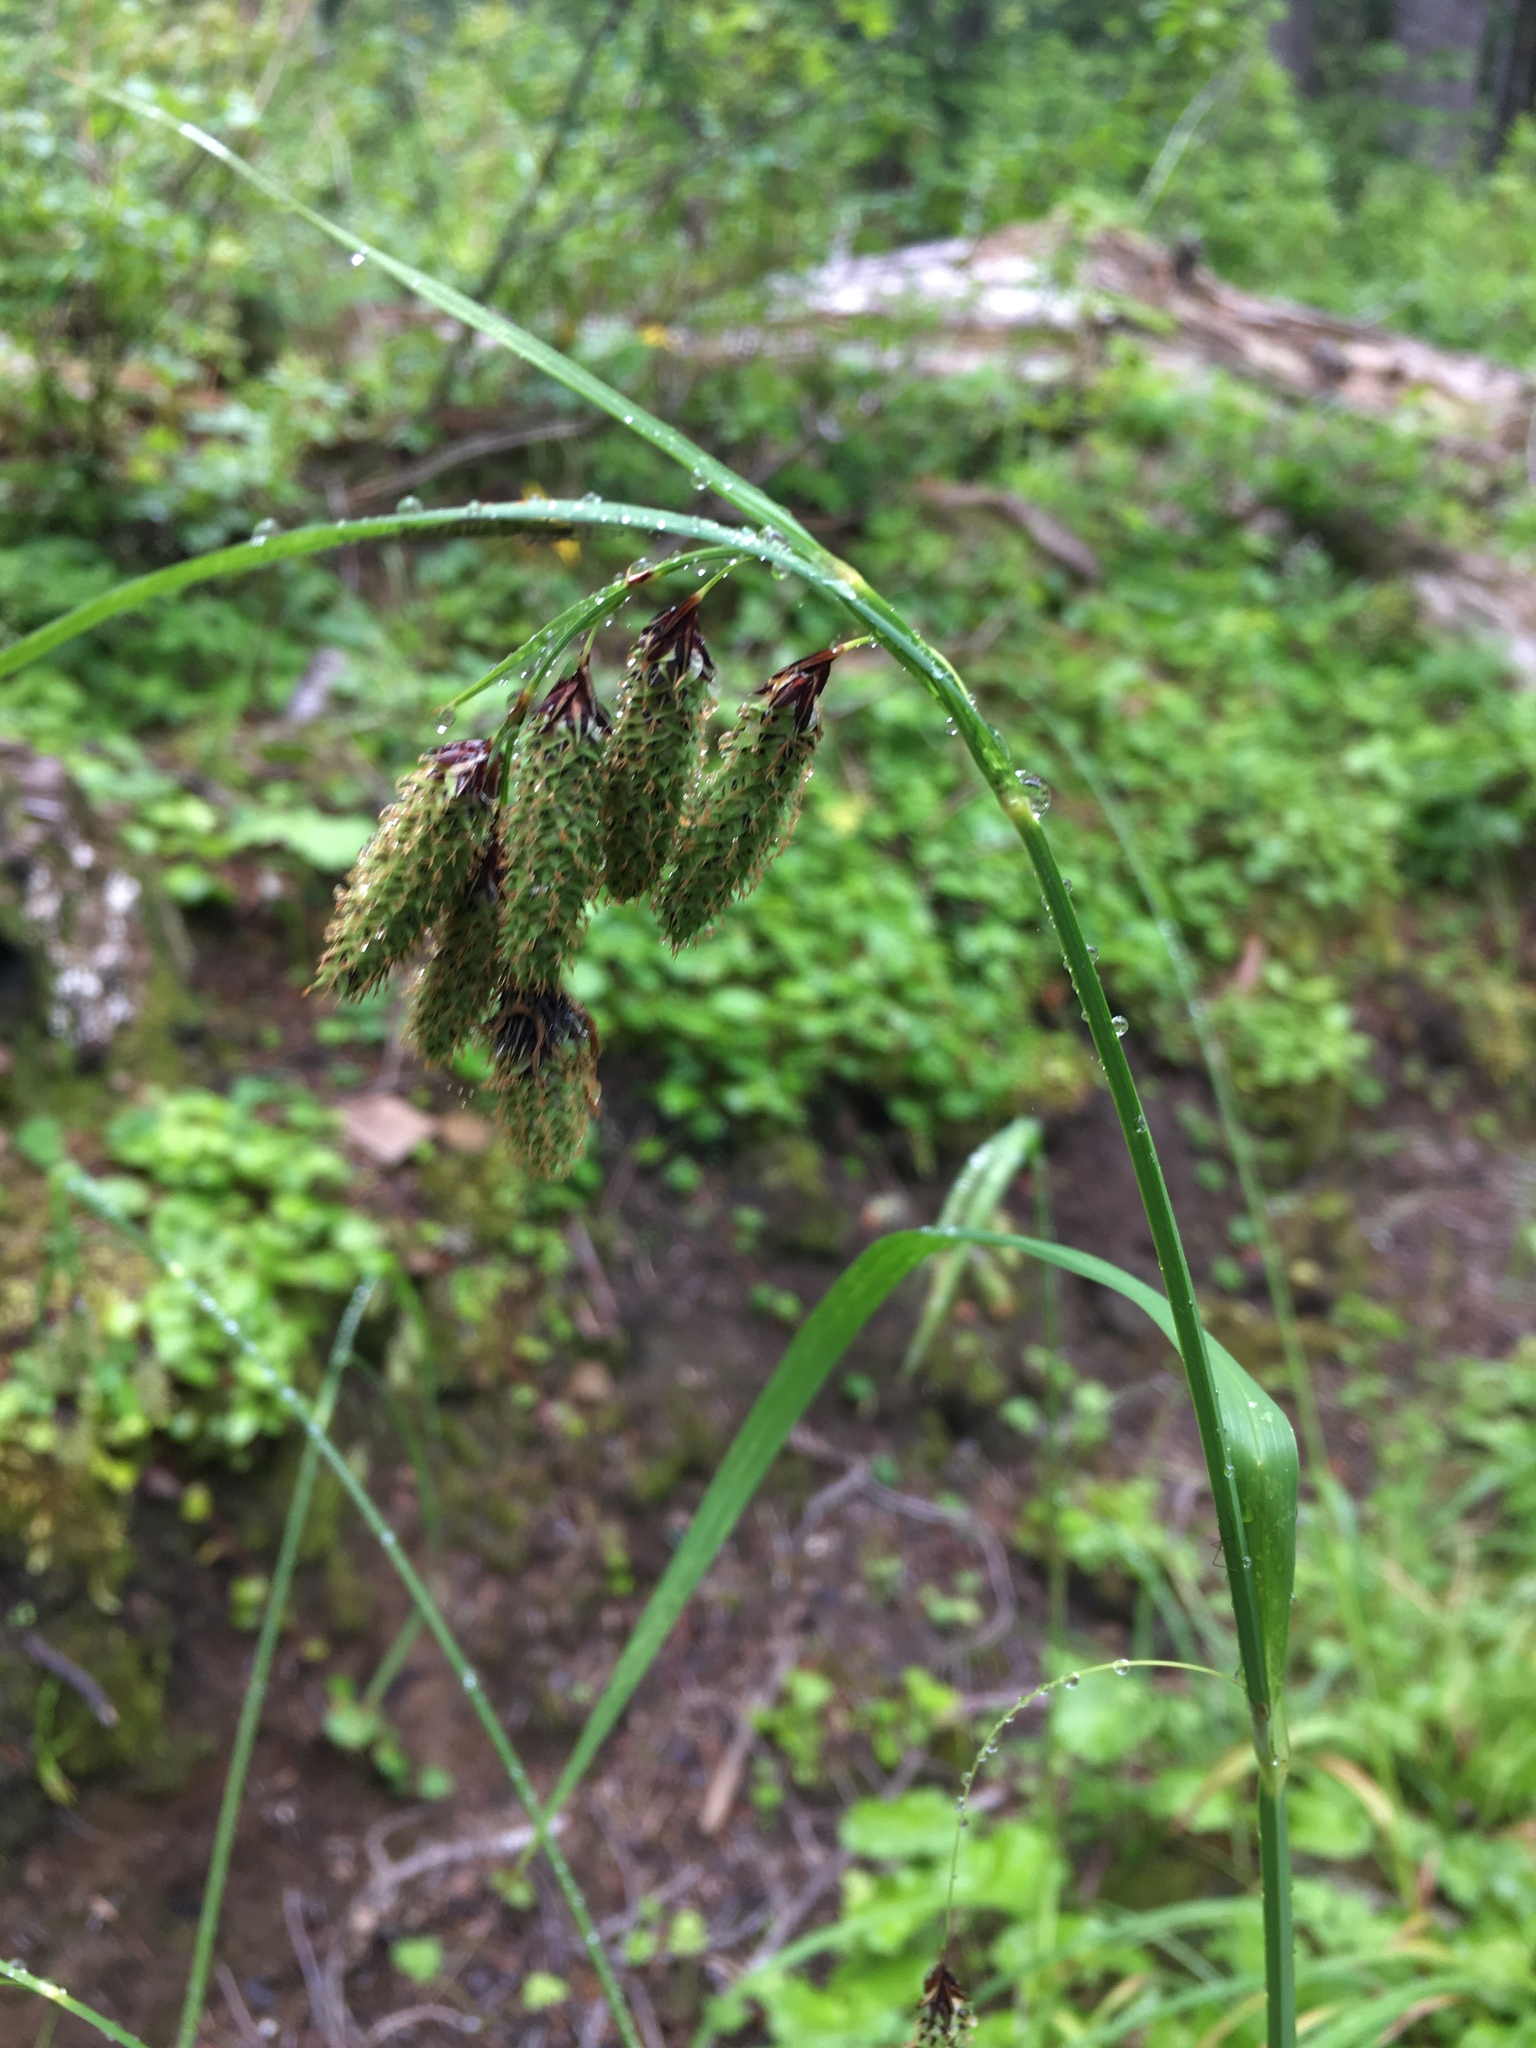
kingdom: Plantae
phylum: Tracheophyta
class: Liliopsida
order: Poales
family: Cyperaceae
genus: Carex
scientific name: Carex mertensii
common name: Mertens' sedge
